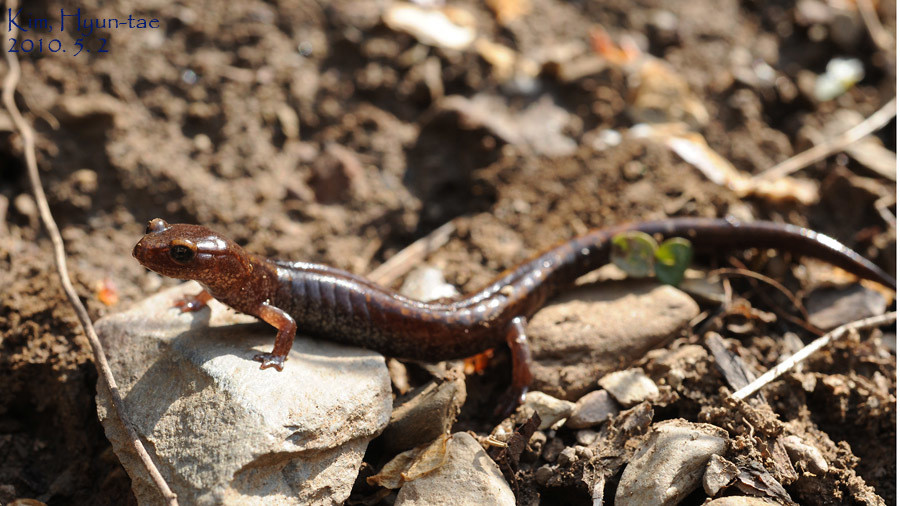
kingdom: Animalia
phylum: Chordata
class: Amphibia
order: Caudata
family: Plethodontidae
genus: Karsenia
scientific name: Karsenia koreana
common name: Korean crevice salamander
